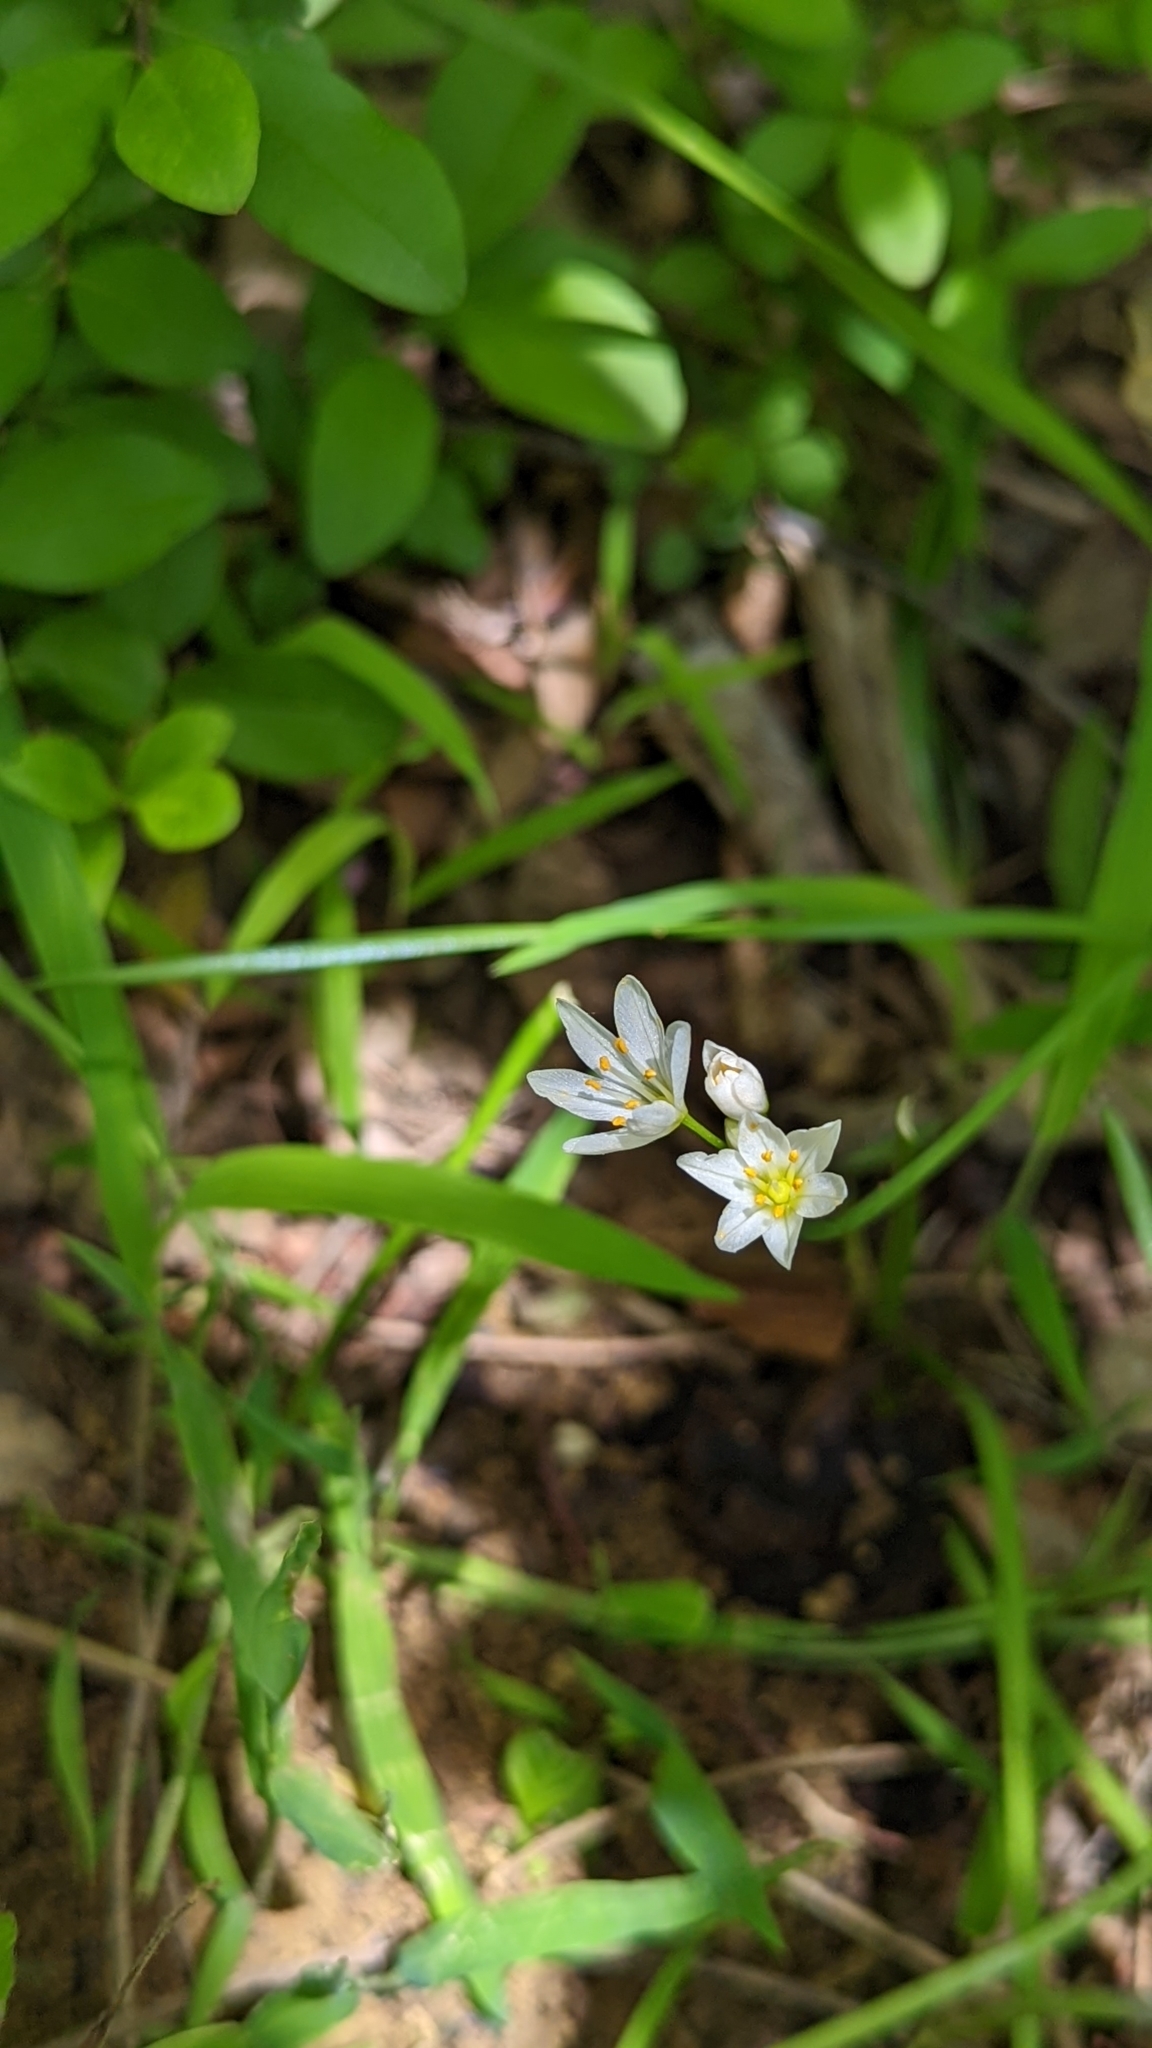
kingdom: Plantae
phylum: Tracheophyta
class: Liliopsida
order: Asparagales
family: Amaryllidaceae
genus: Nothoscordum
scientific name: Nothoscordum bivalve
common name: Crow-poison
